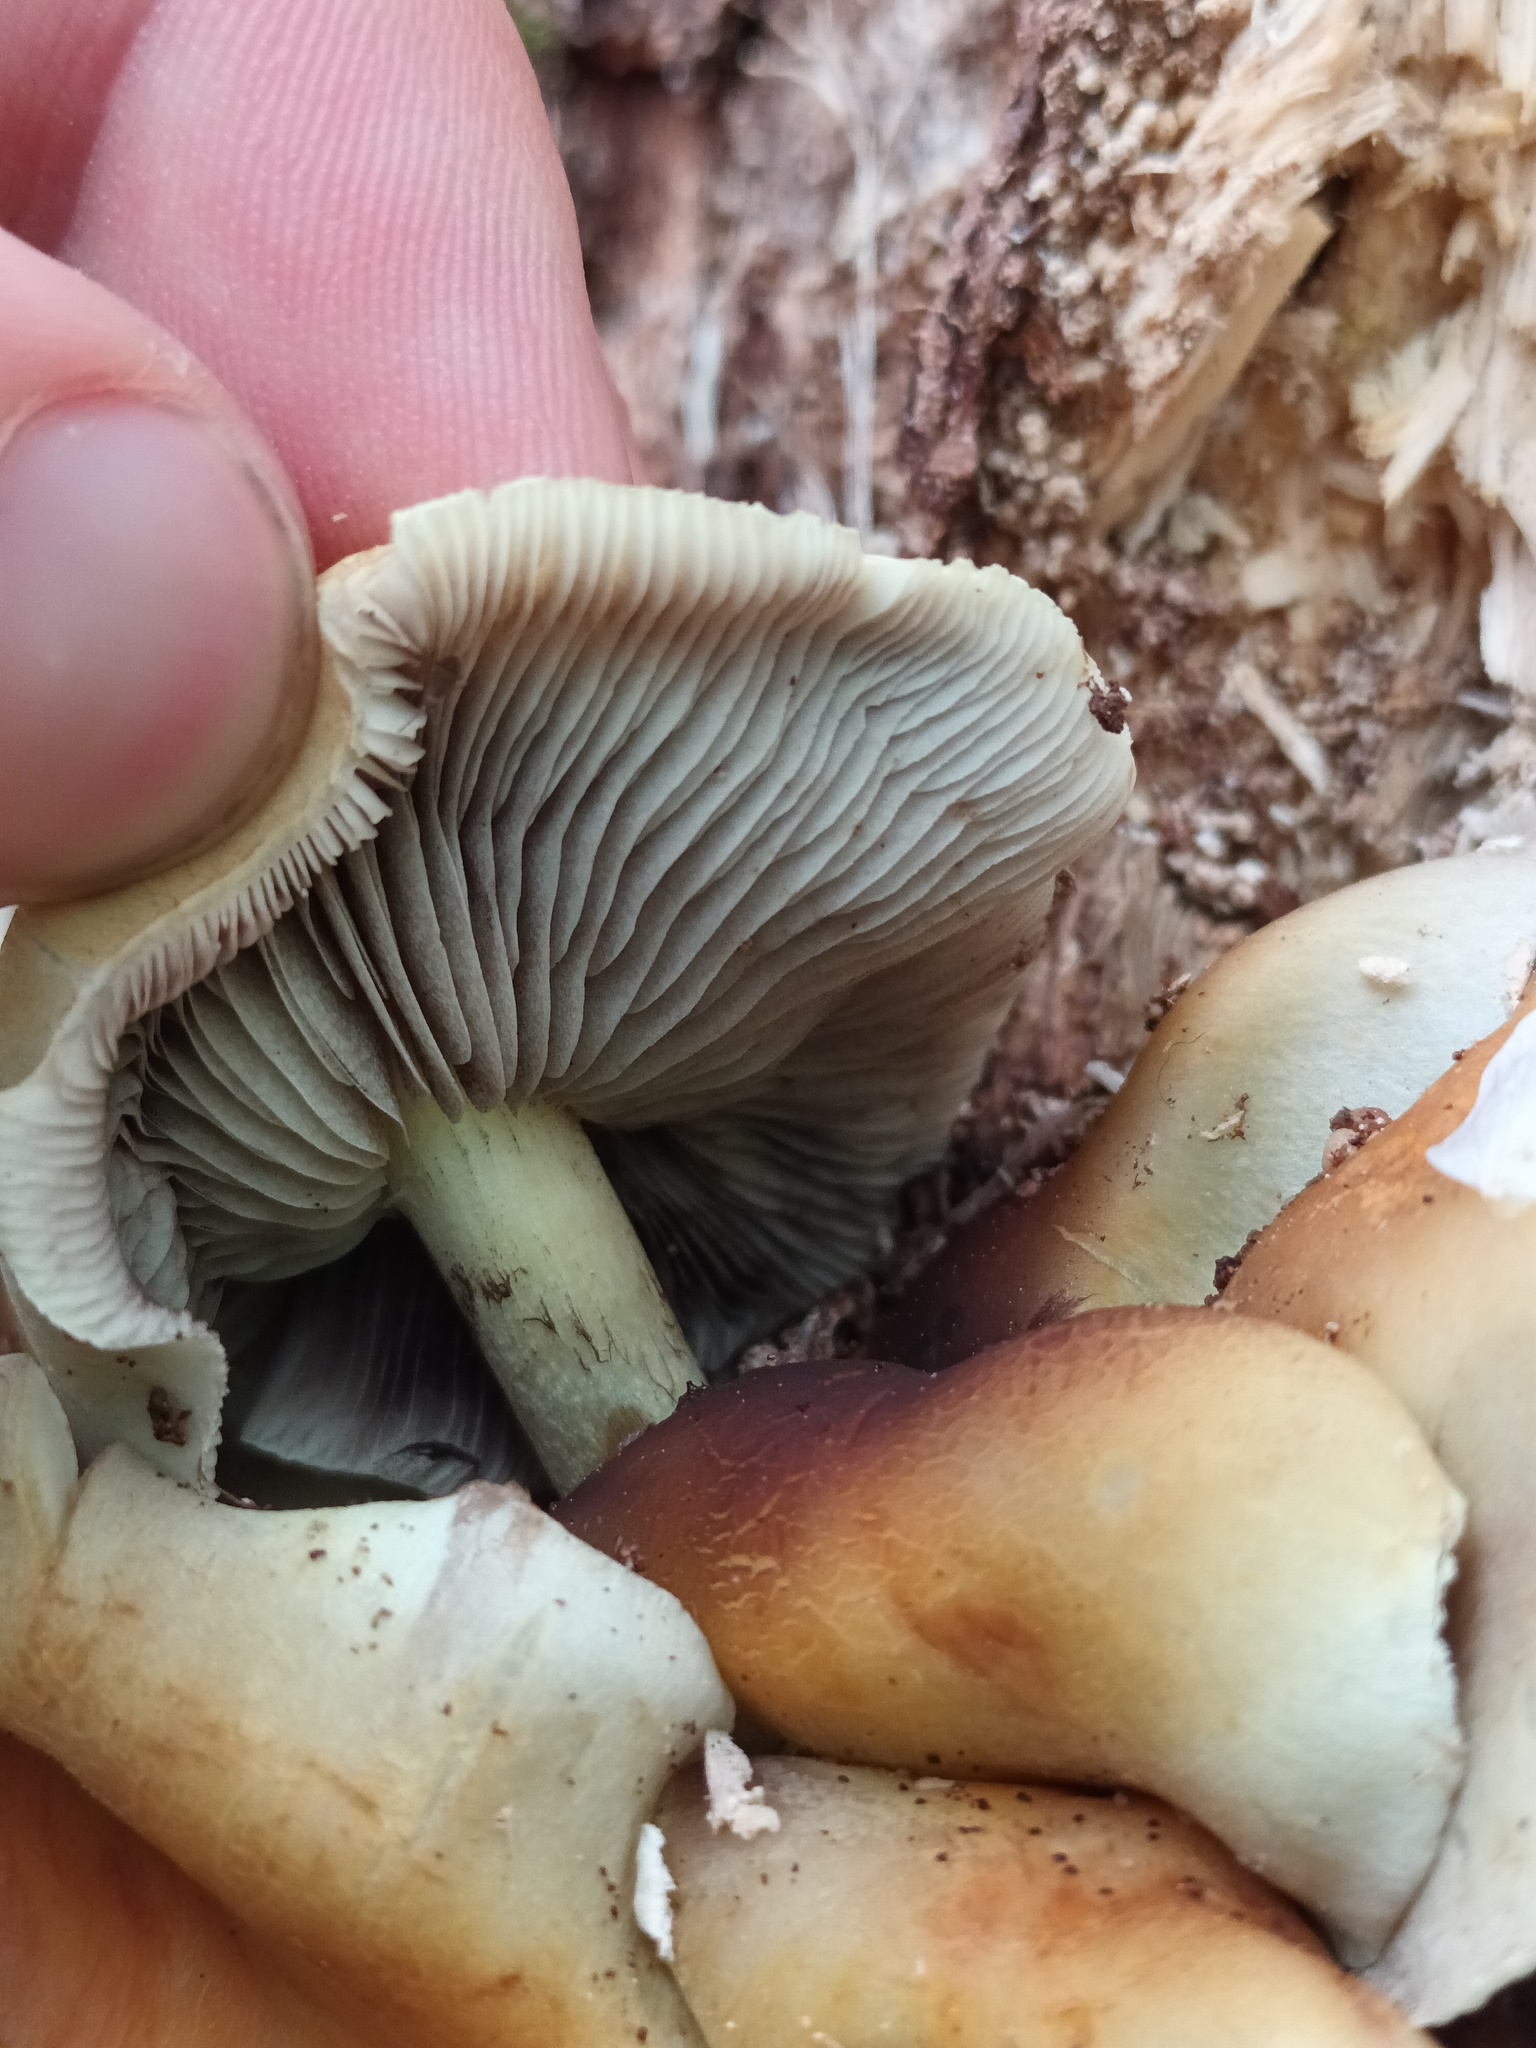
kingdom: Fungi
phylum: Basidiomycota
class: Agaricomycetes
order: Agaricales
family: Strophariaceae
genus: Hypholoma
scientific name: Hypholoma fasciculare
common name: Sulphur tuft
